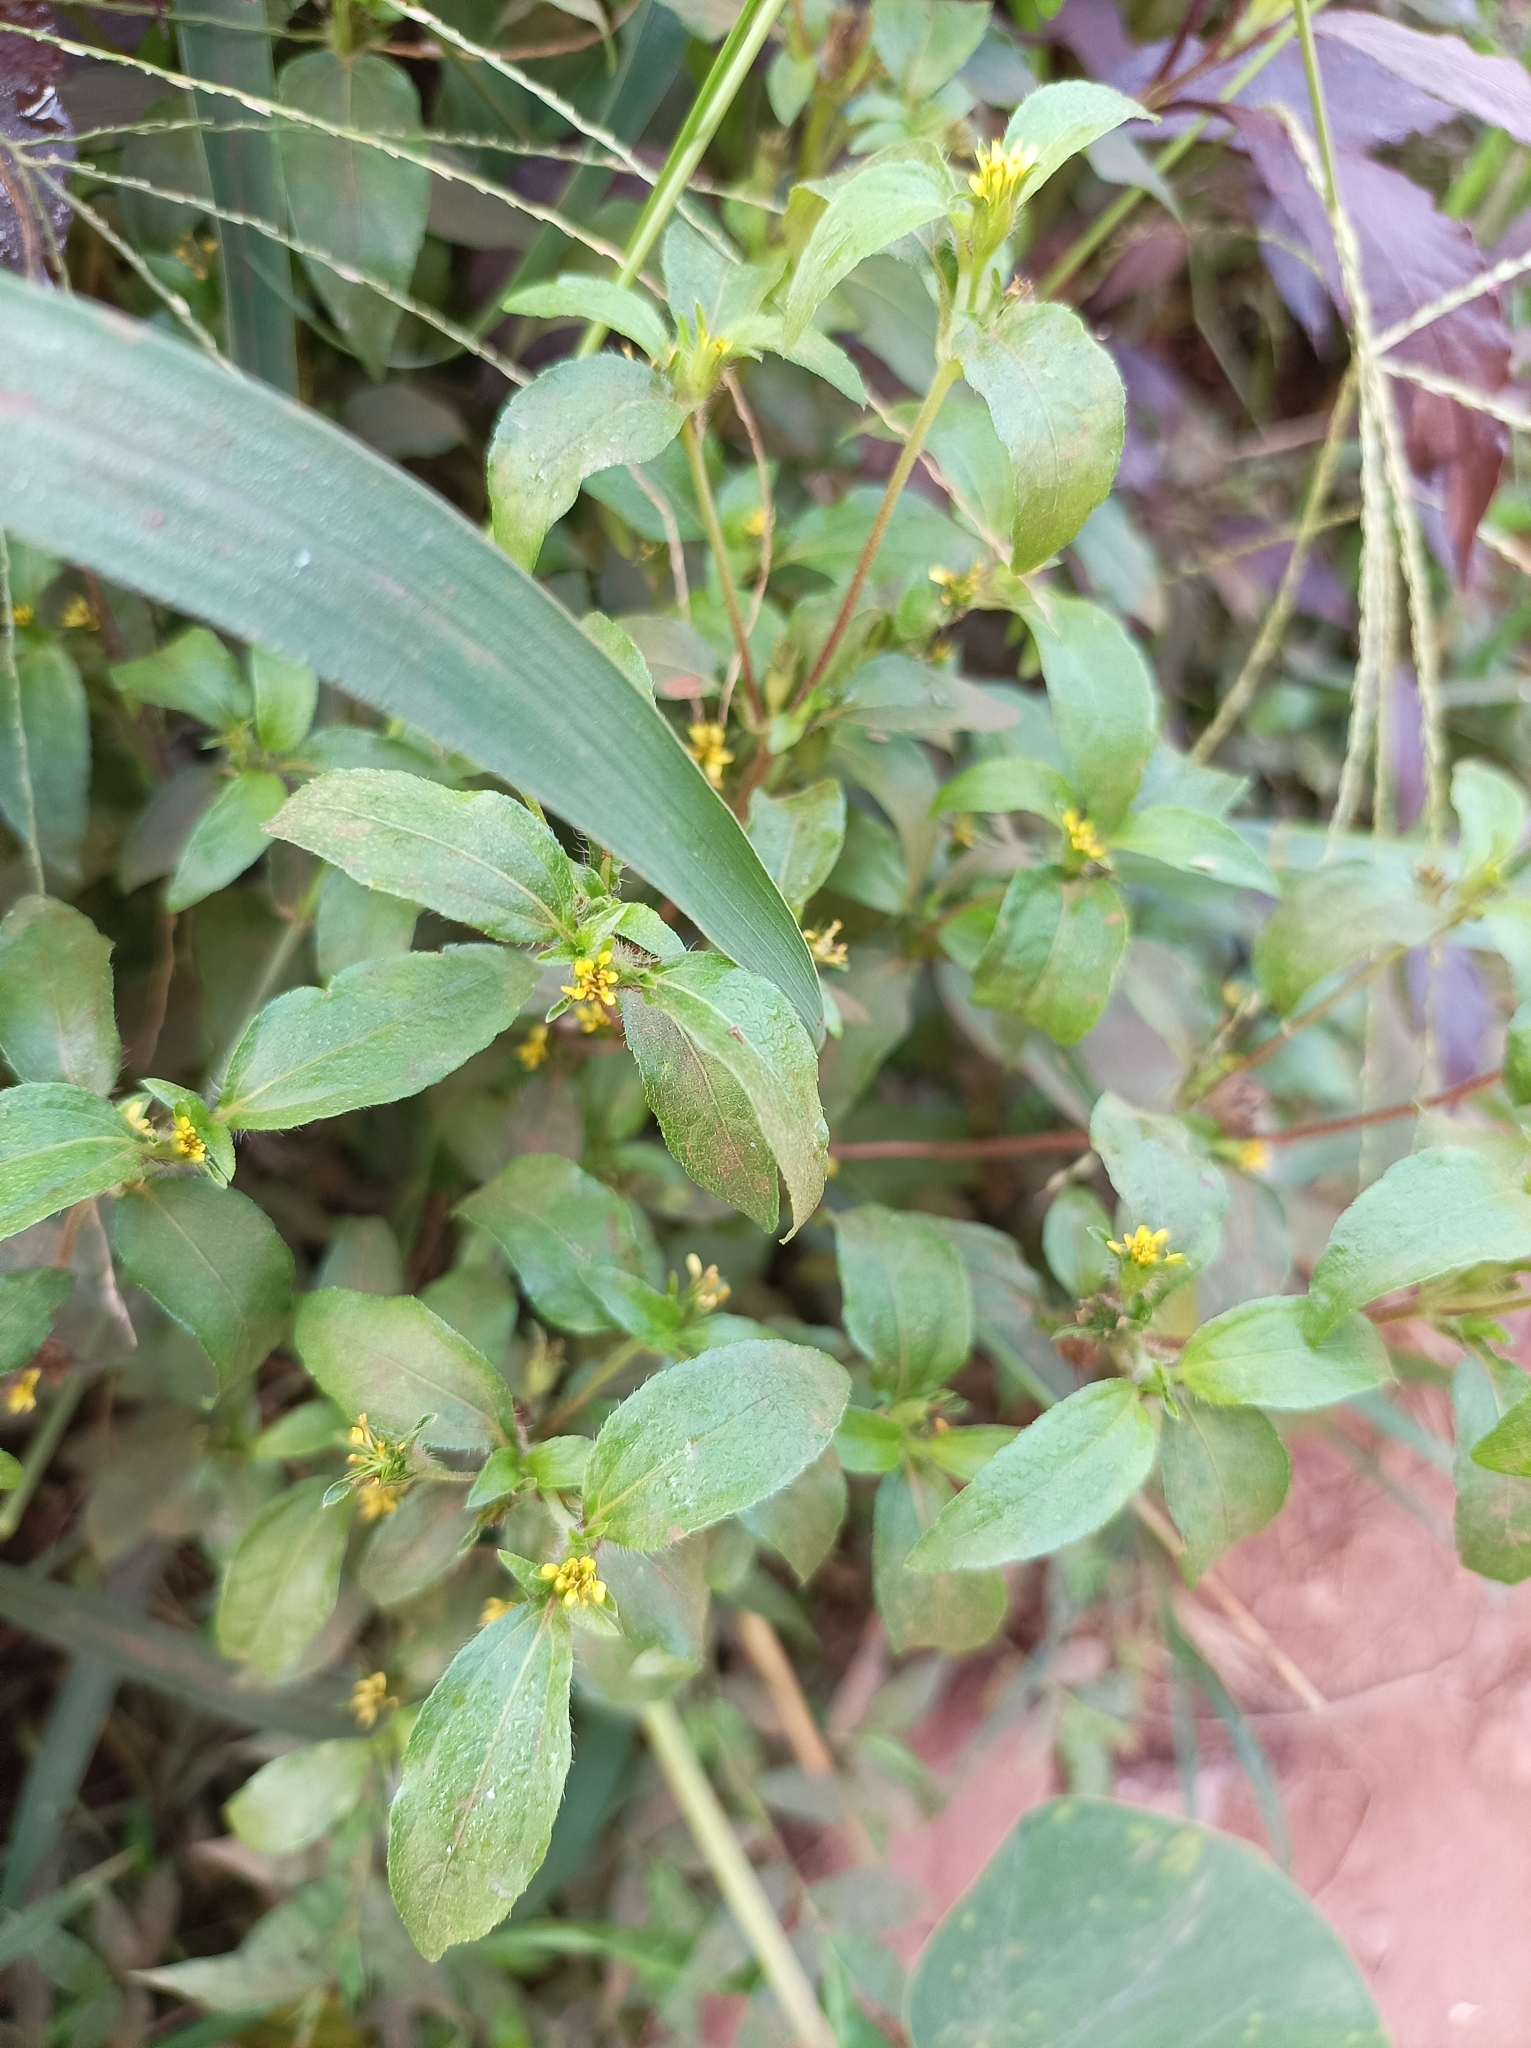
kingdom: Plantae
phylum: Tracheophyta
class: Magnoliopsida
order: Asterales
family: Asteraceae
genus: Synedrella
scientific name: Synedrella nodiflora
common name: Nodeweed
